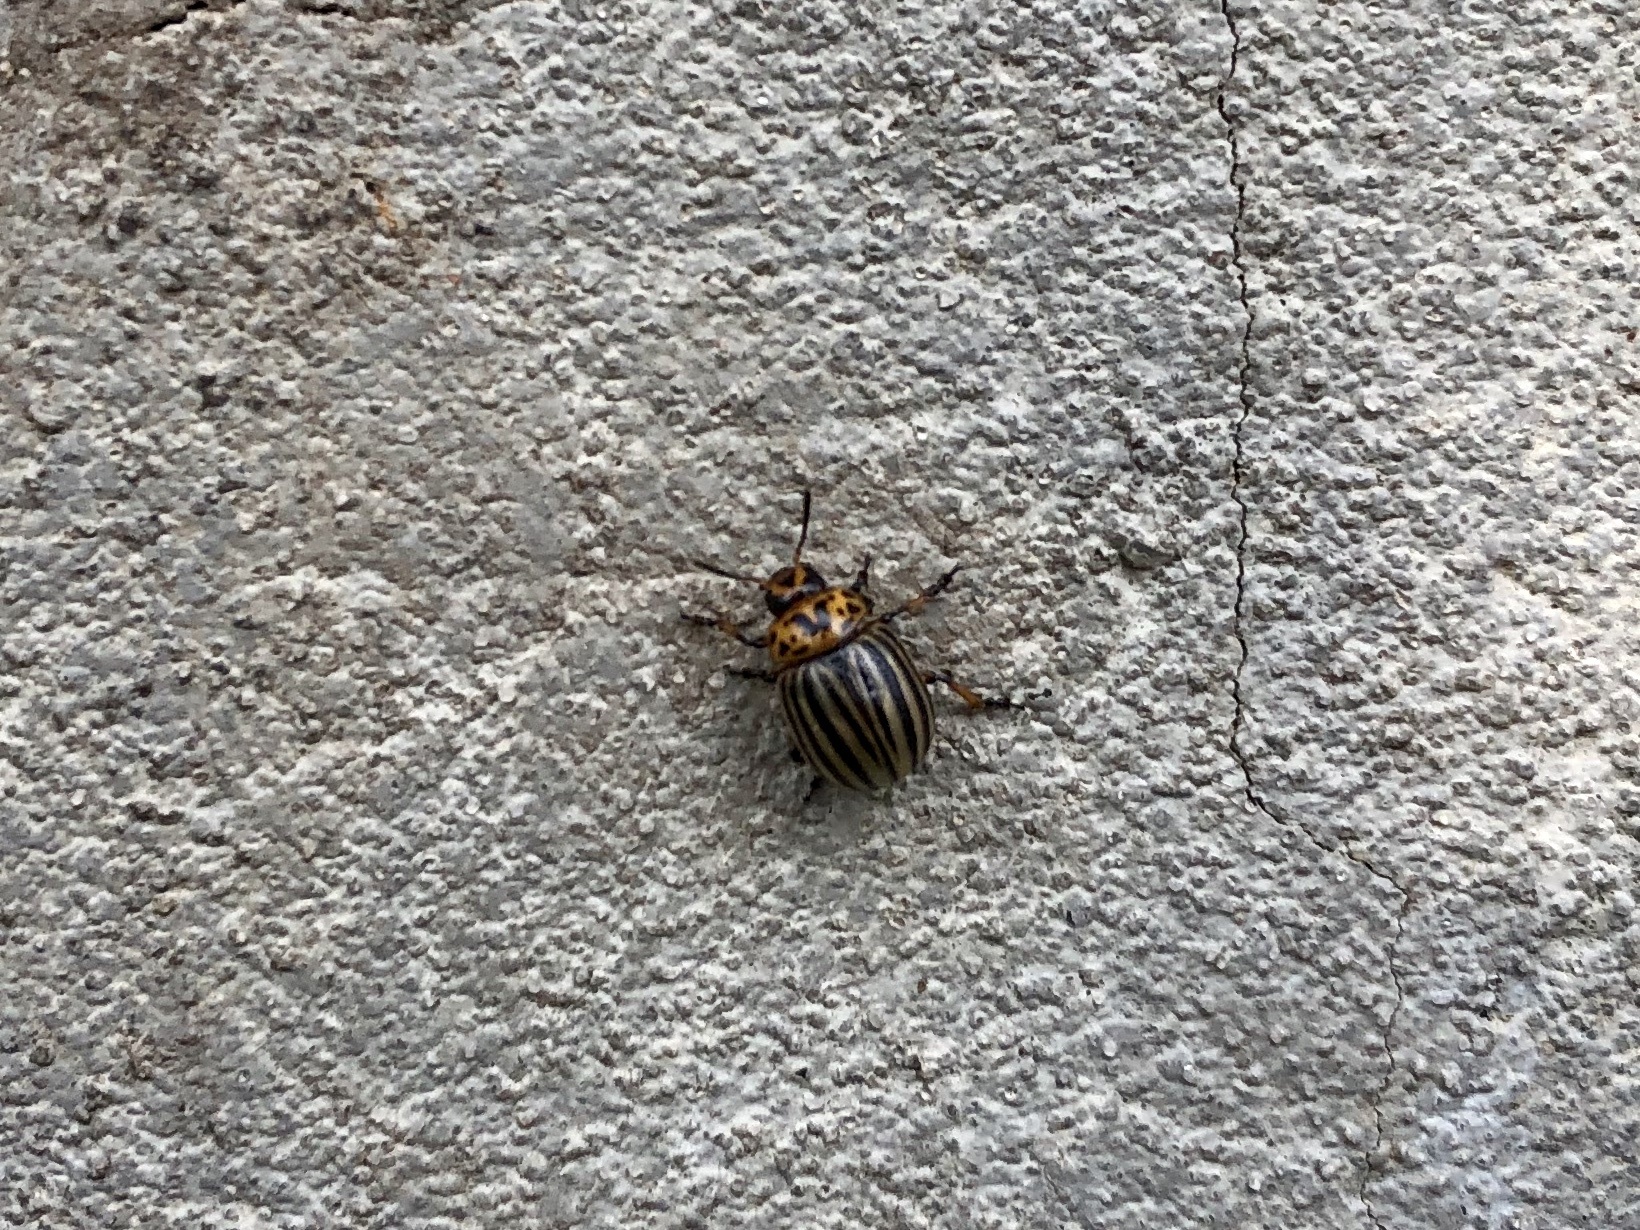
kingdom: Animalia
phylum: Arthropoda
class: Insecta
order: Coleoptera
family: Chrysomelidae
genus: Leptinotarsa
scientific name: Leptinotarsa decemlineata
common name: Colorado potato beetle
